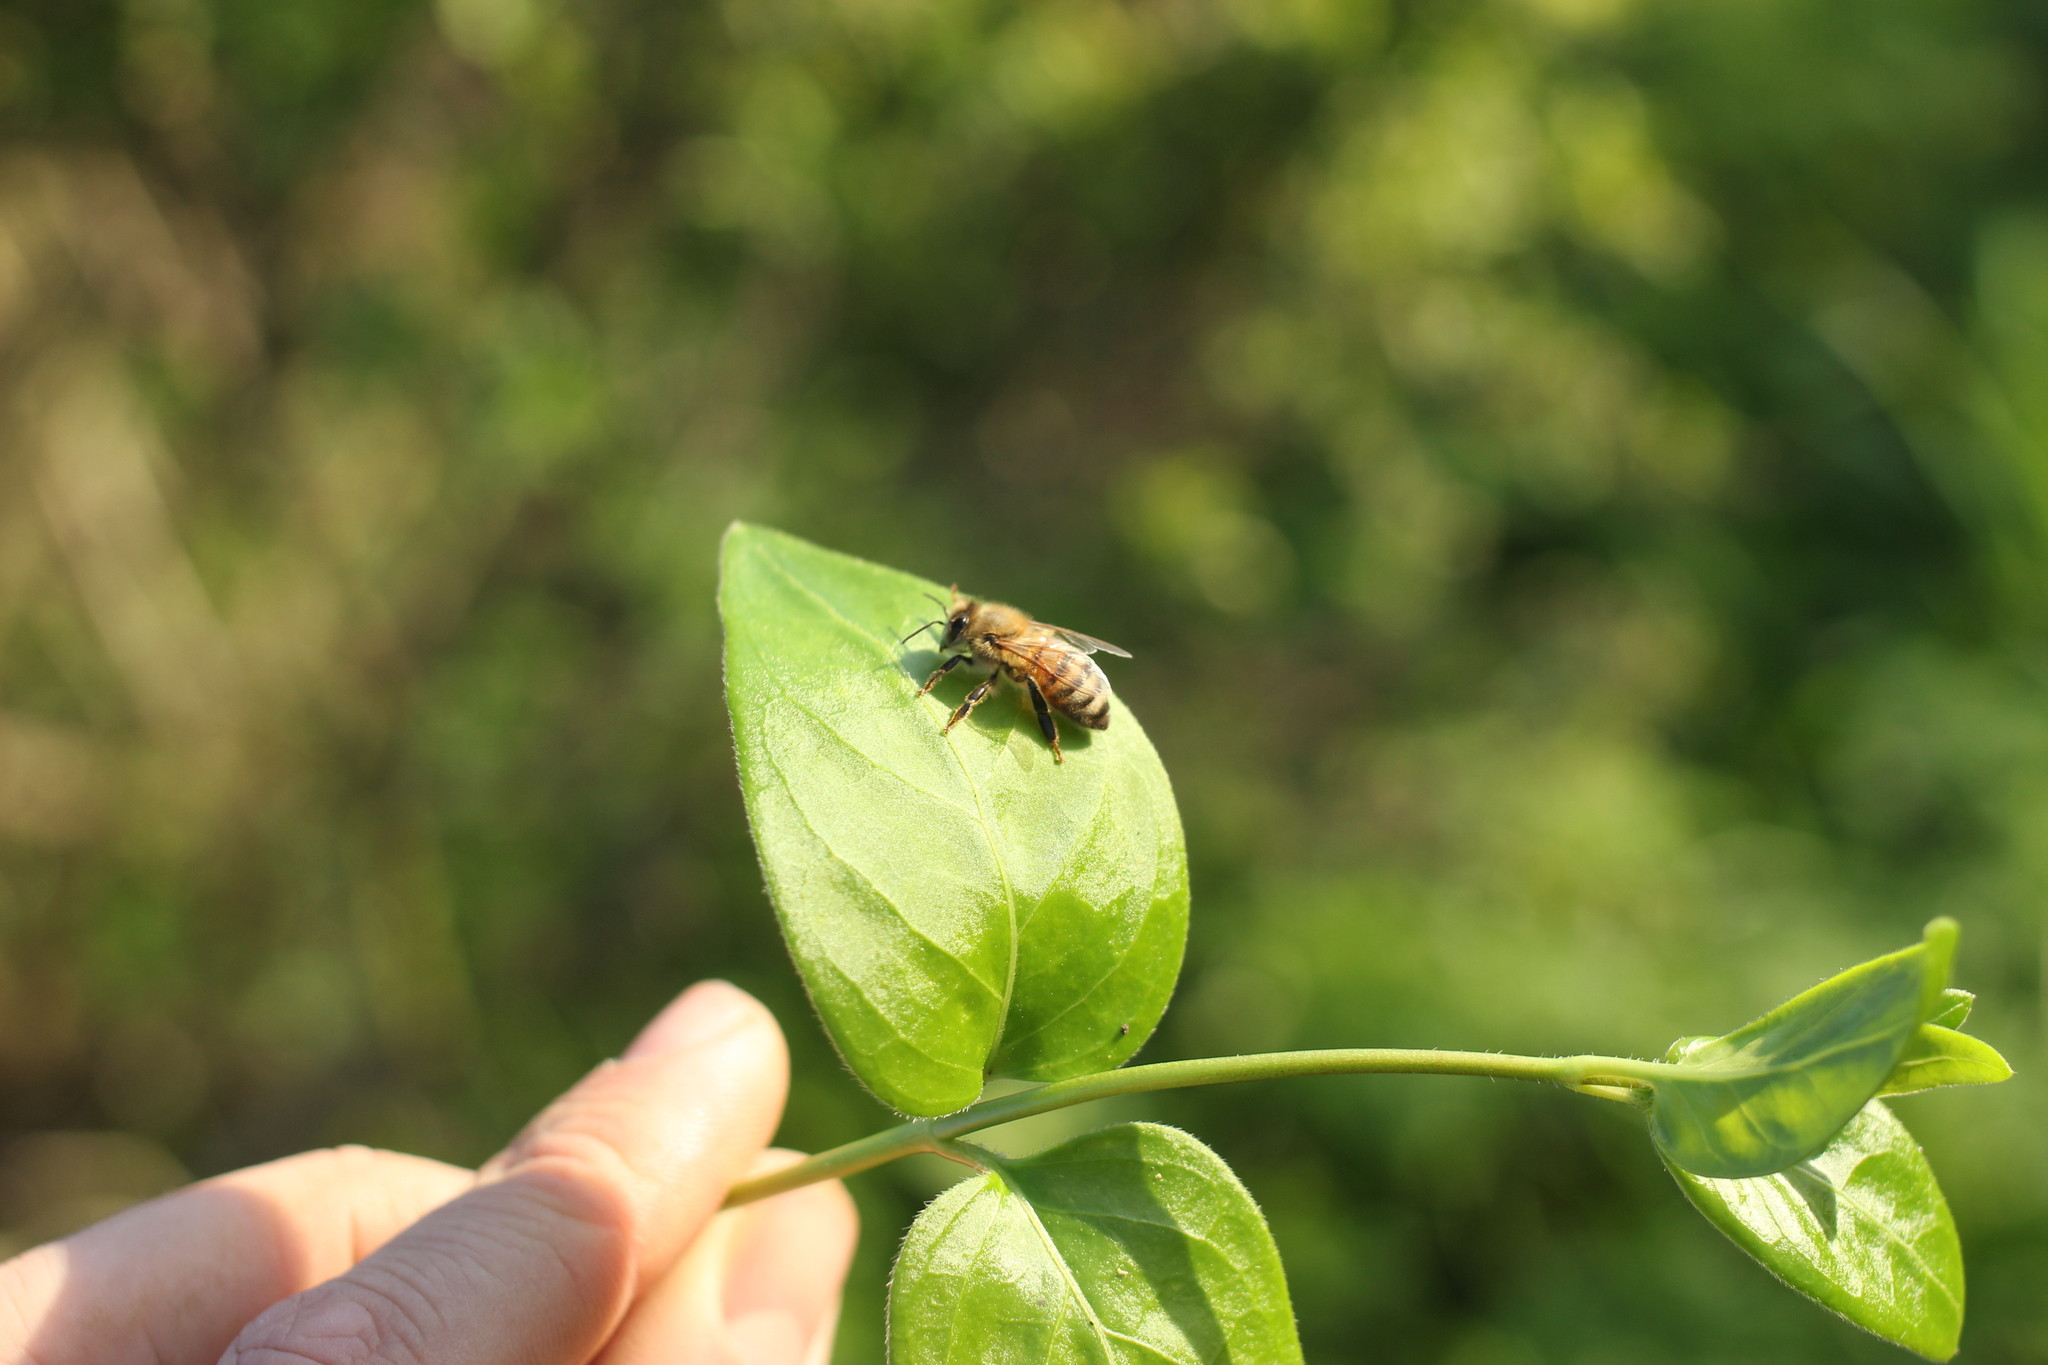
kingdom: Animalia
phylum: Arthropoda
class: Insecta
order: Hymenoptera
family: Apidae
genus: Apis
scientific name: Apis mellifera
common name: Honey bee
